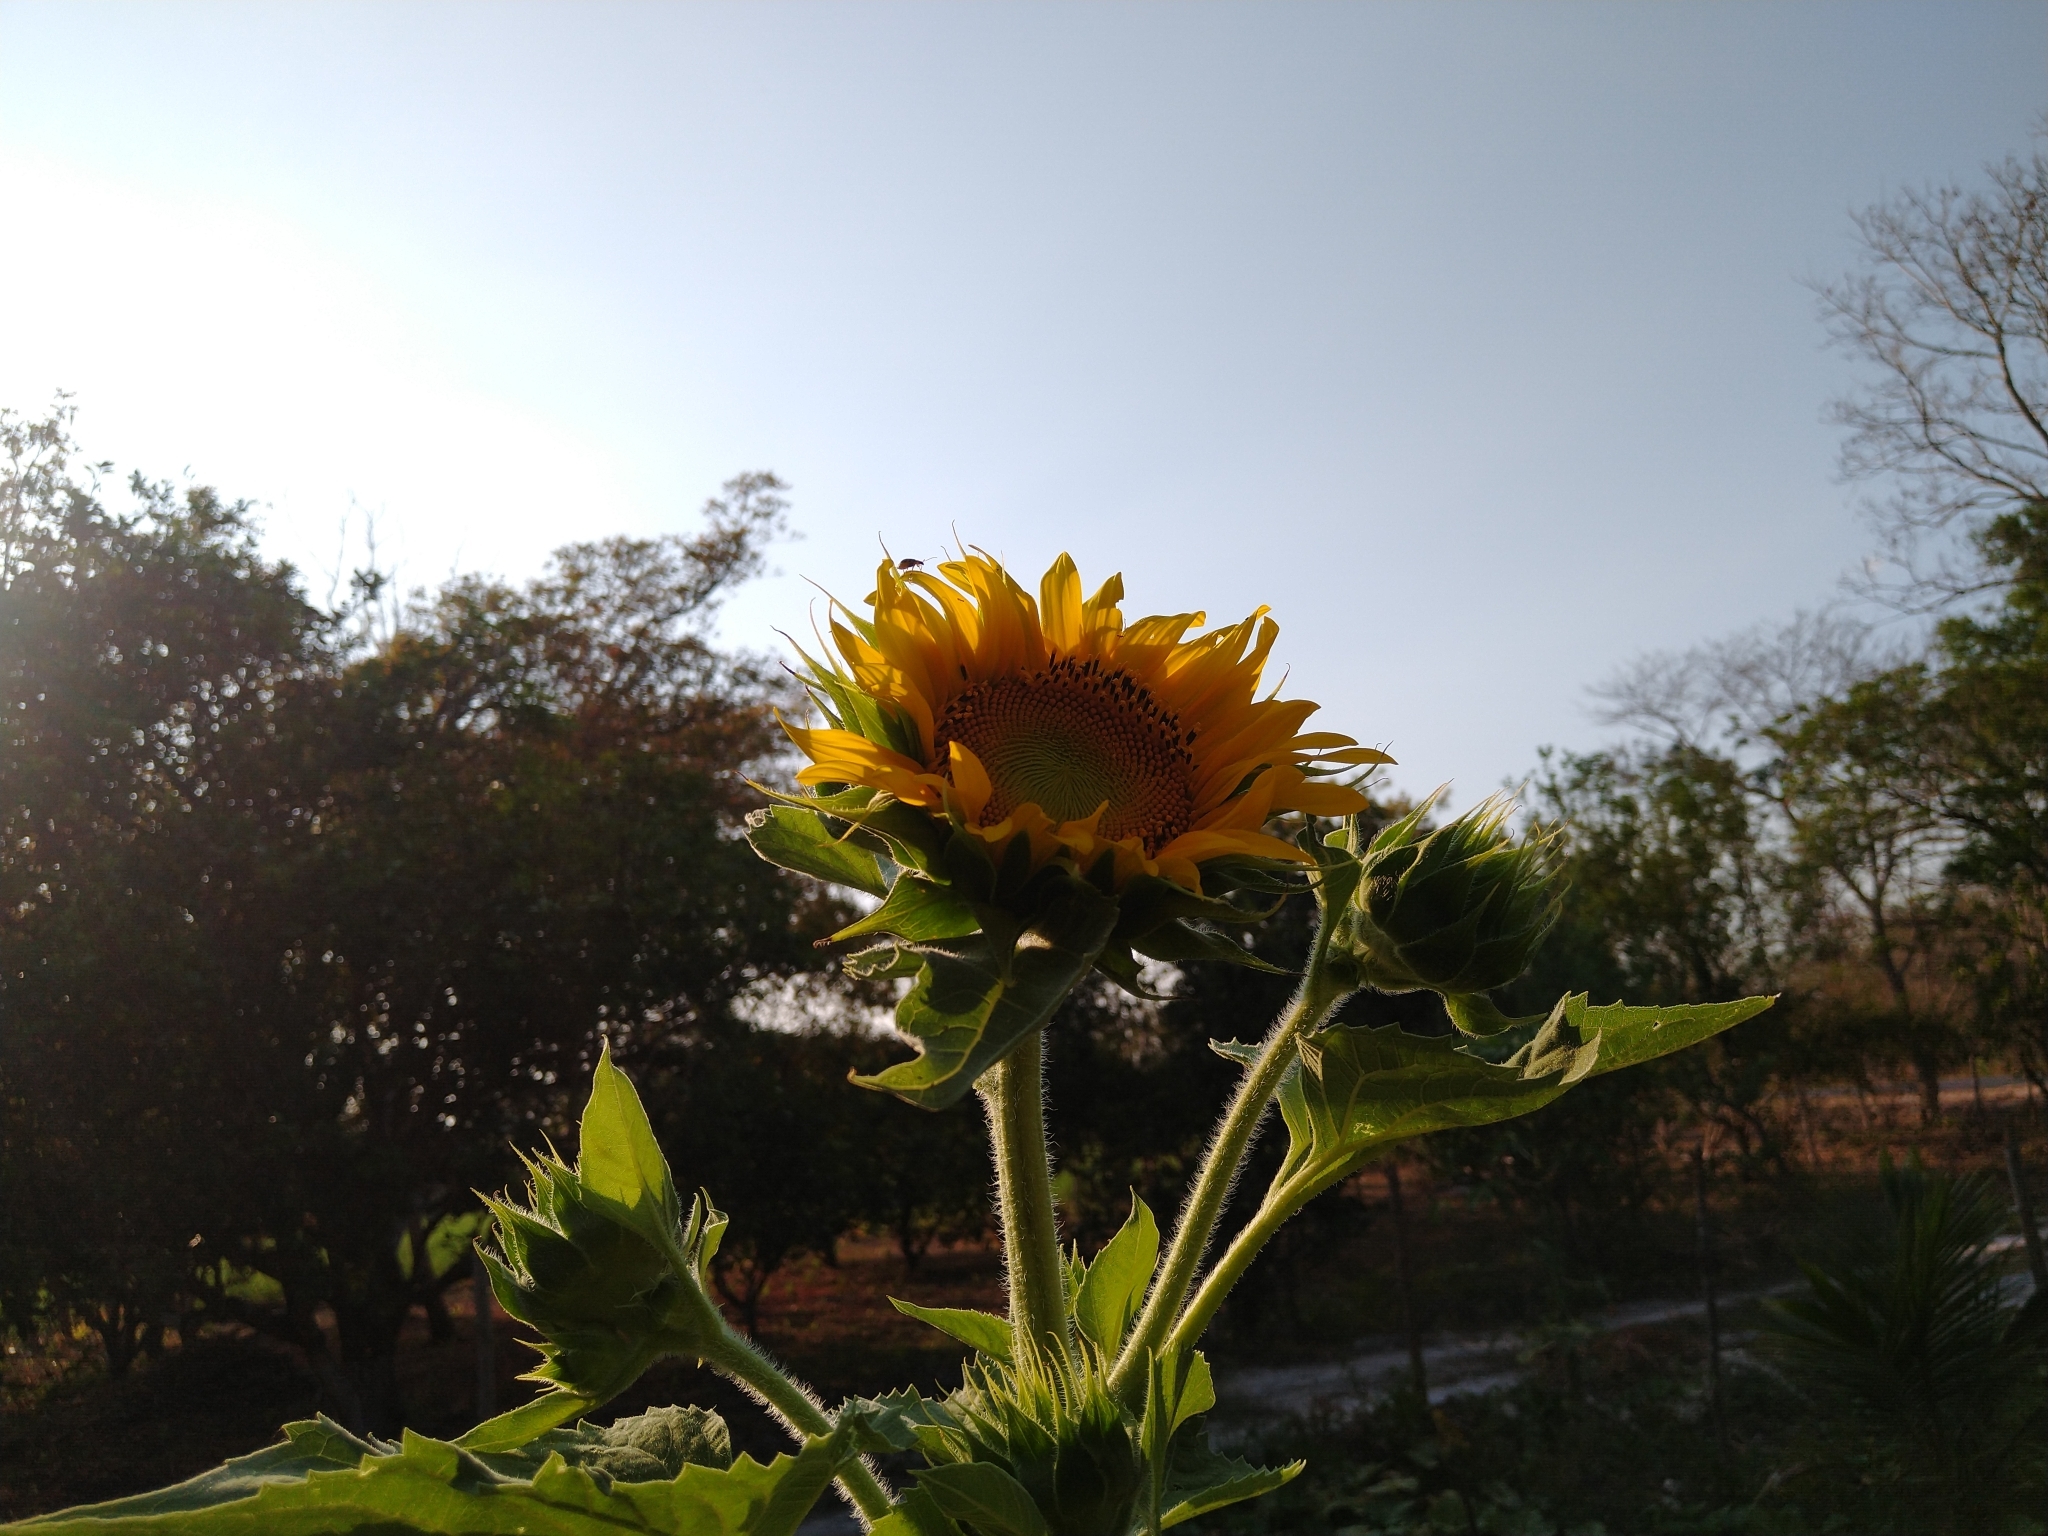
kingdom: Plantae
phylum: Tracheophyta
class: Magnoliopsida
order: Asterales
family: Asteraceae
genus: Helianthus
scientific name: Helianthus annuus
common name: Sunflower
